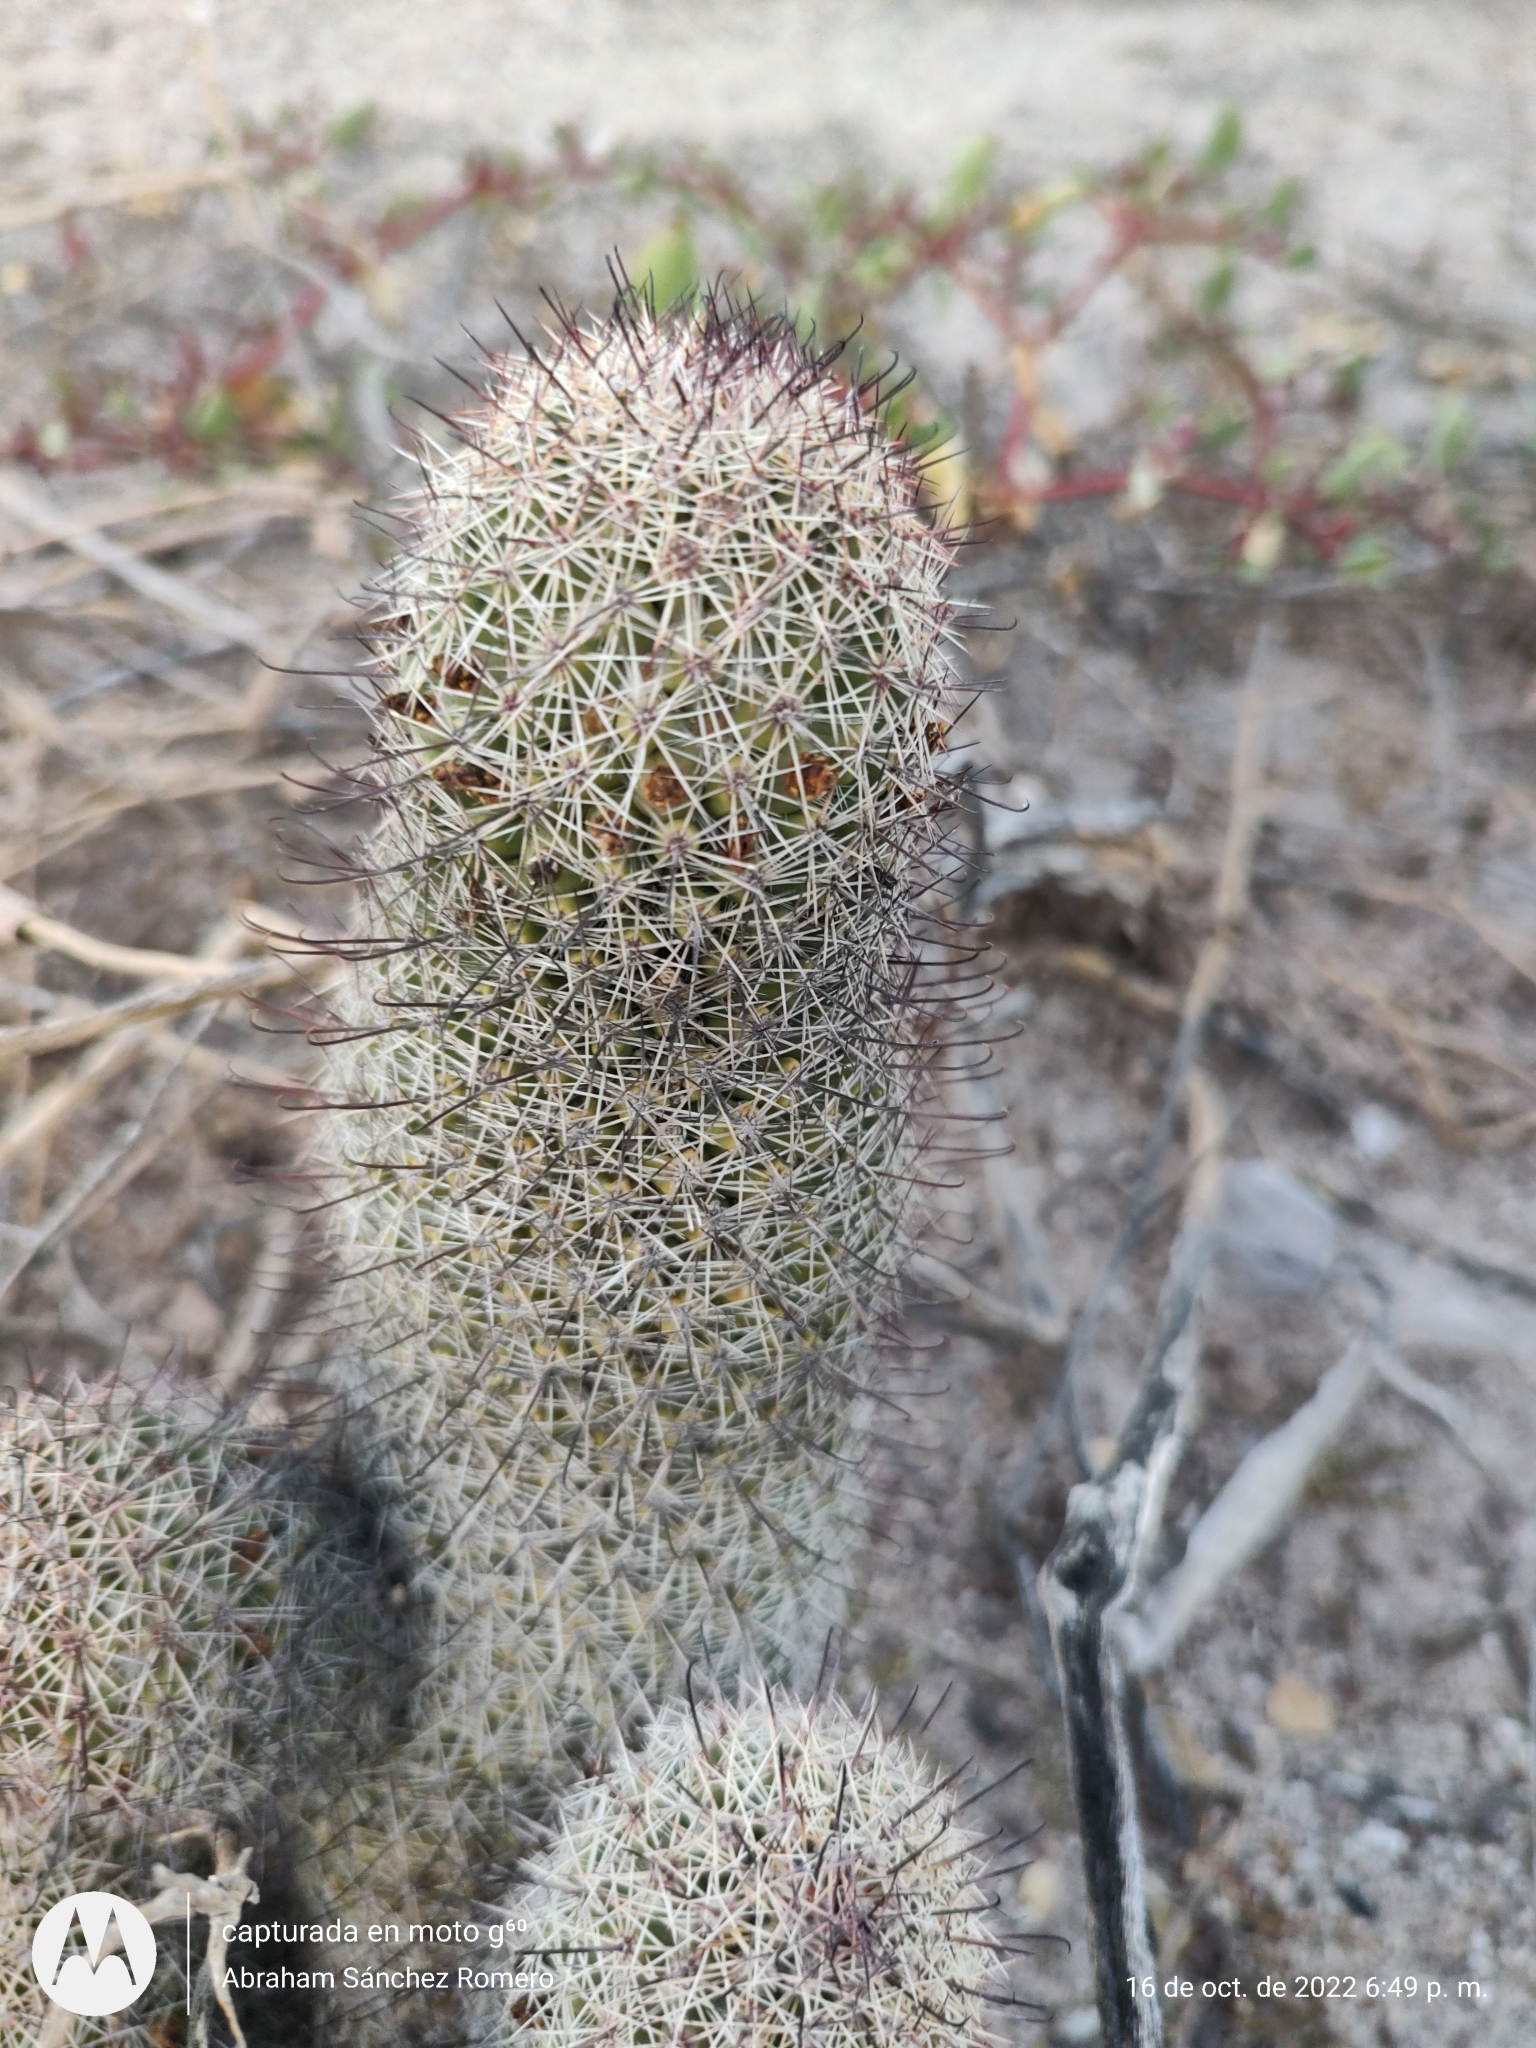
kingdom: Plantae
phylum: Tracheophyta
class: Magnoliopsida
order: Caryophyllales
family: Cactaceae
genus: Cochemiea
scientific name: Cochemiea dioica
